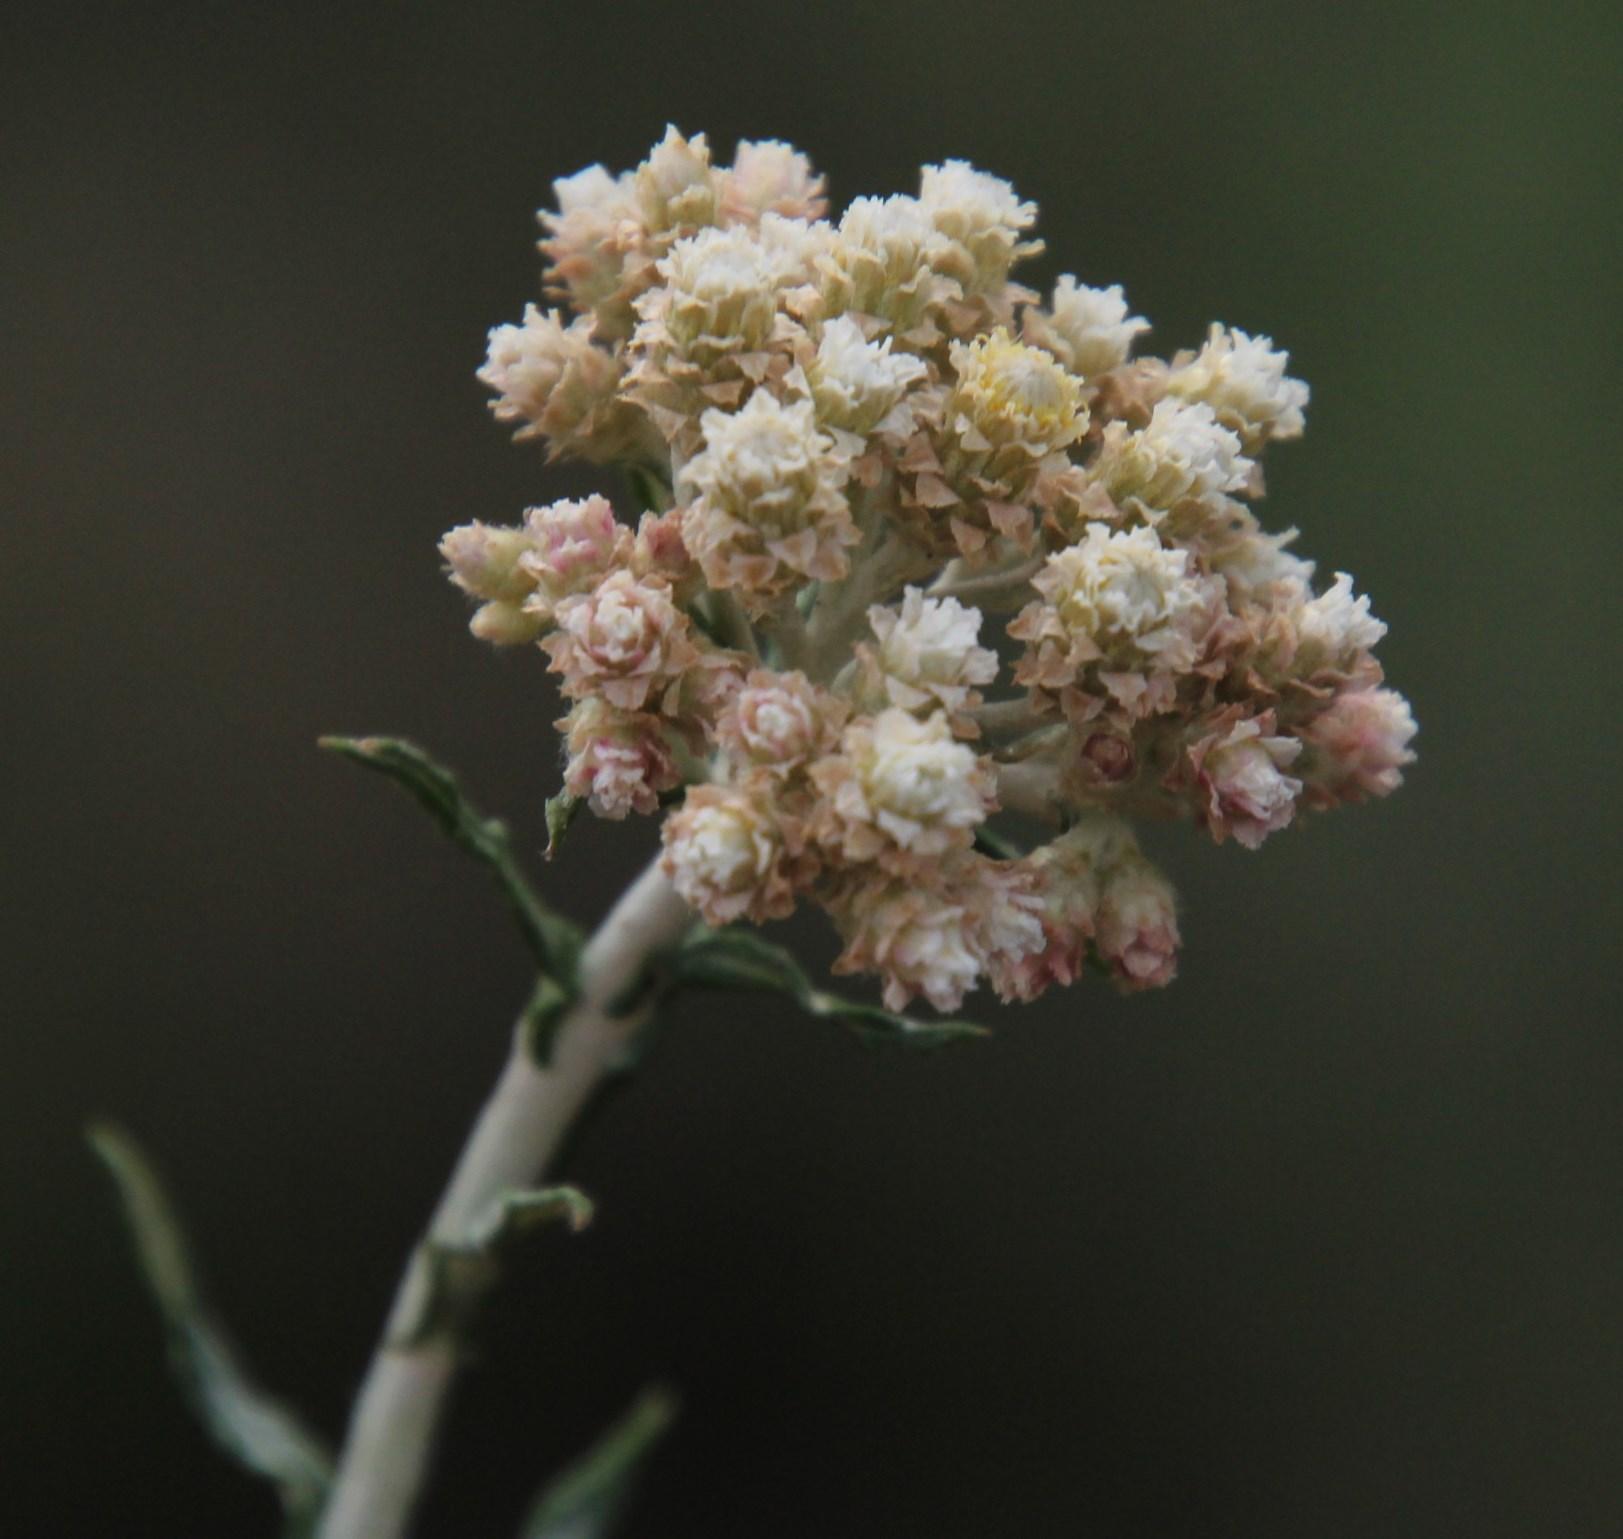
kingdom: Plantae
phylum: Tracheophyta
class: Magnoliopsida
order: Asterales
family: Asteraceae
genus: Helichrysum
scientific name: Helichrysum rugulosum
